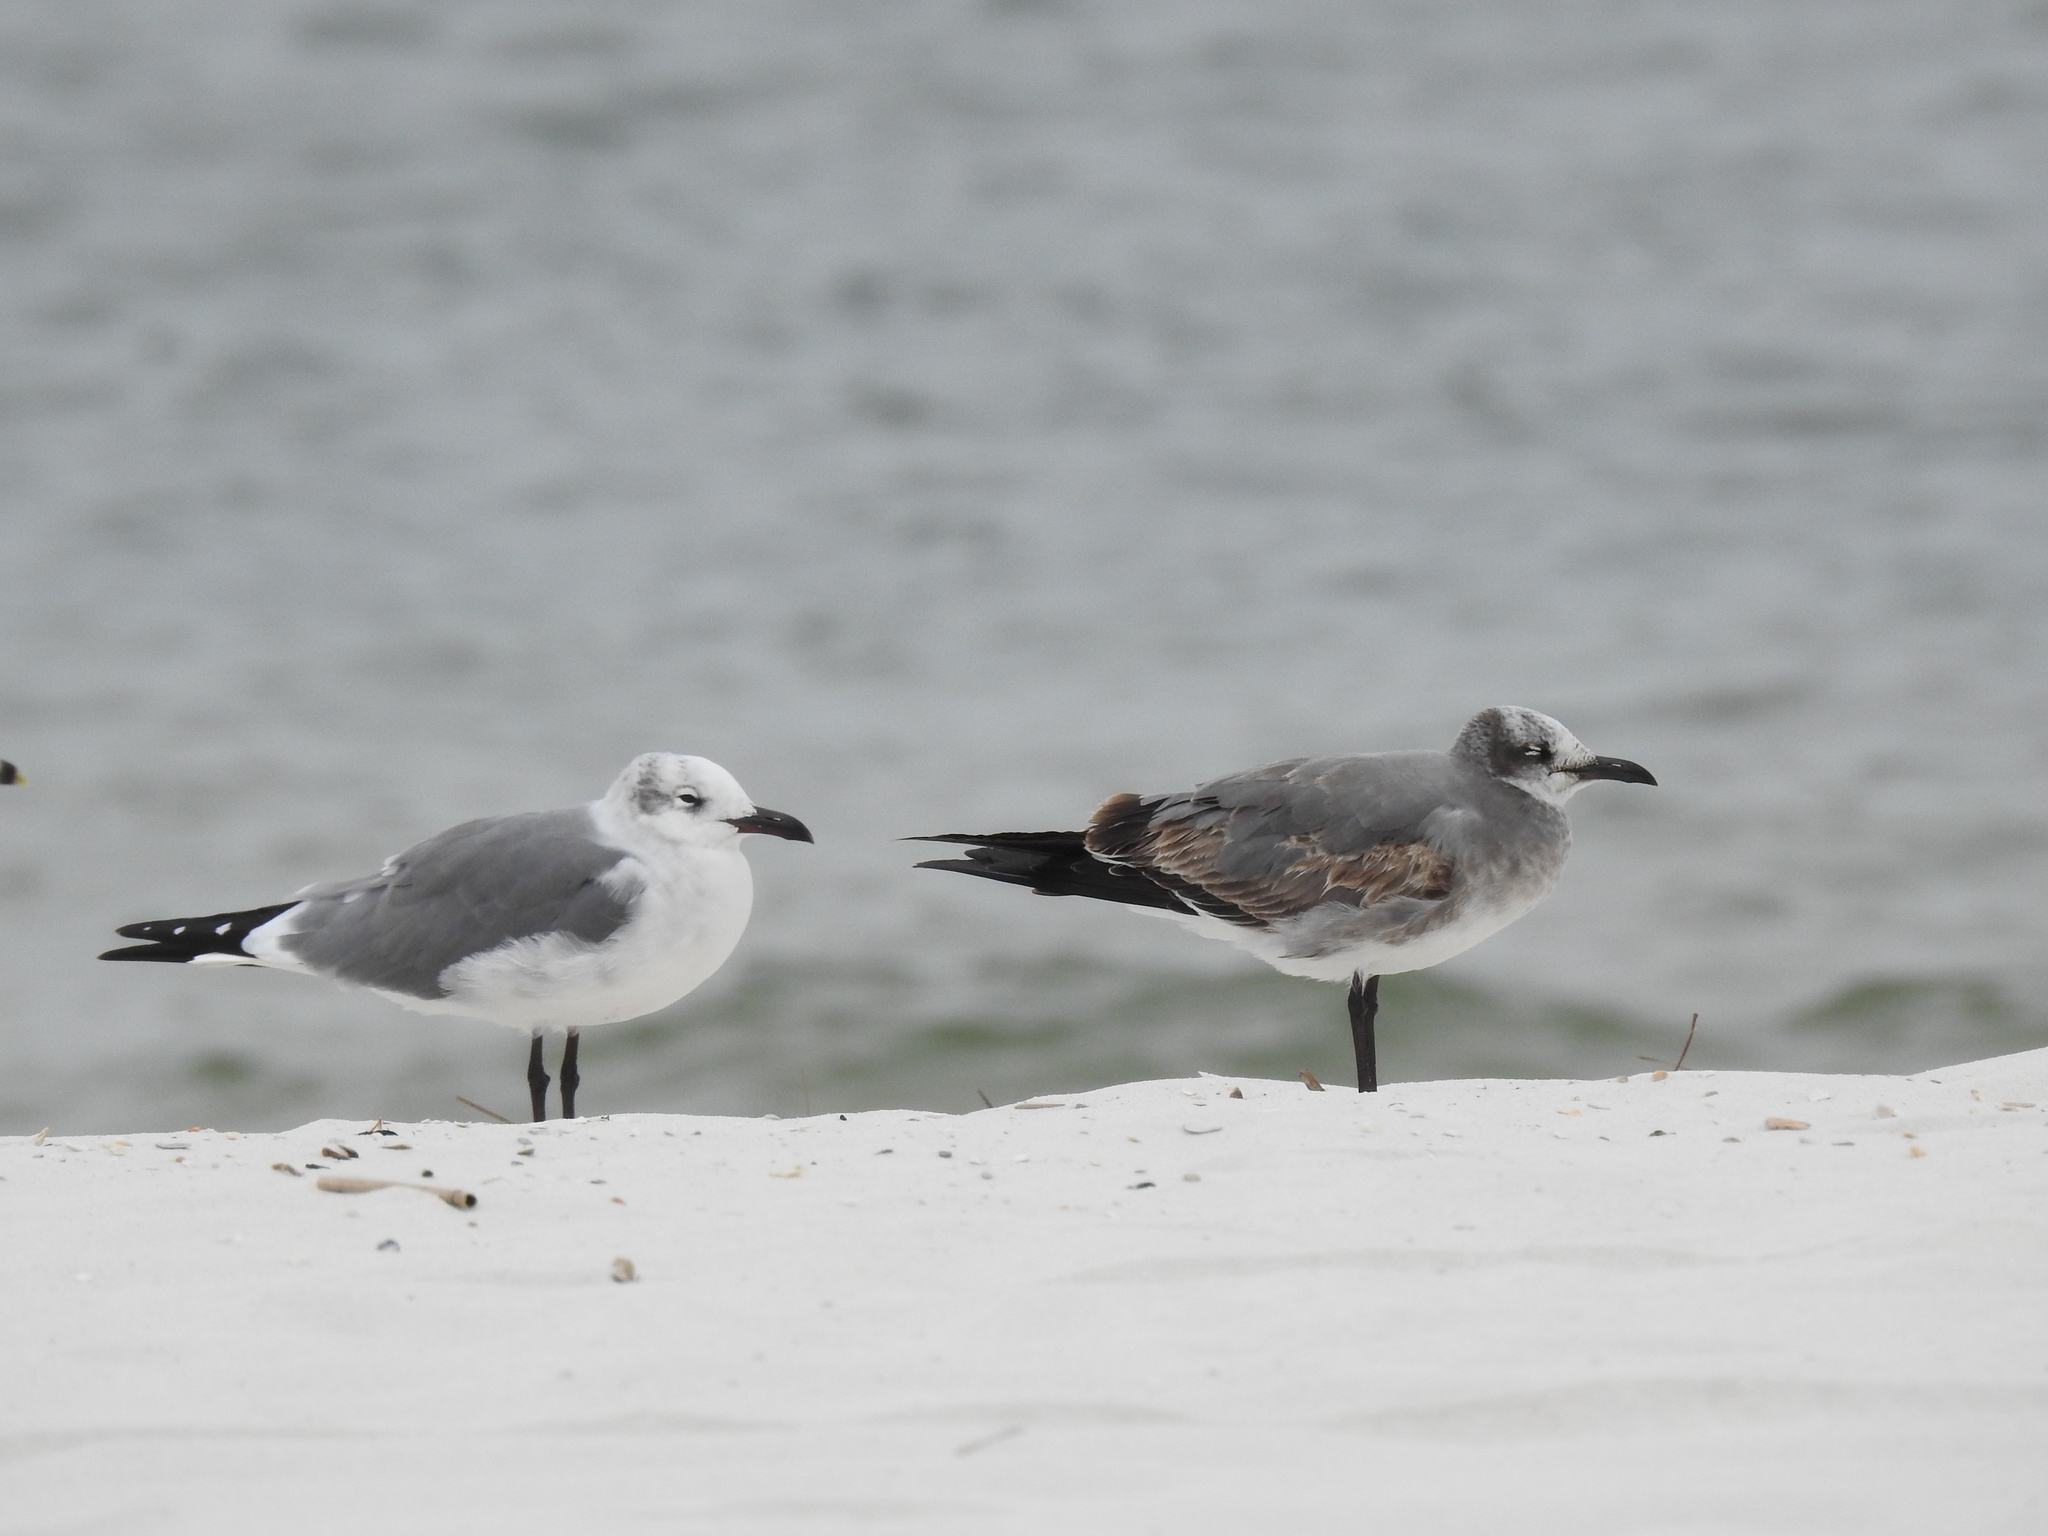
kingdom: Animalia
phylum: Chordata
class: Aves
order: Charadriiformes
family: Laridae
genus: Leucophaeus
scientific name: Leucophaeus atricilla
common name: Laughing gull
